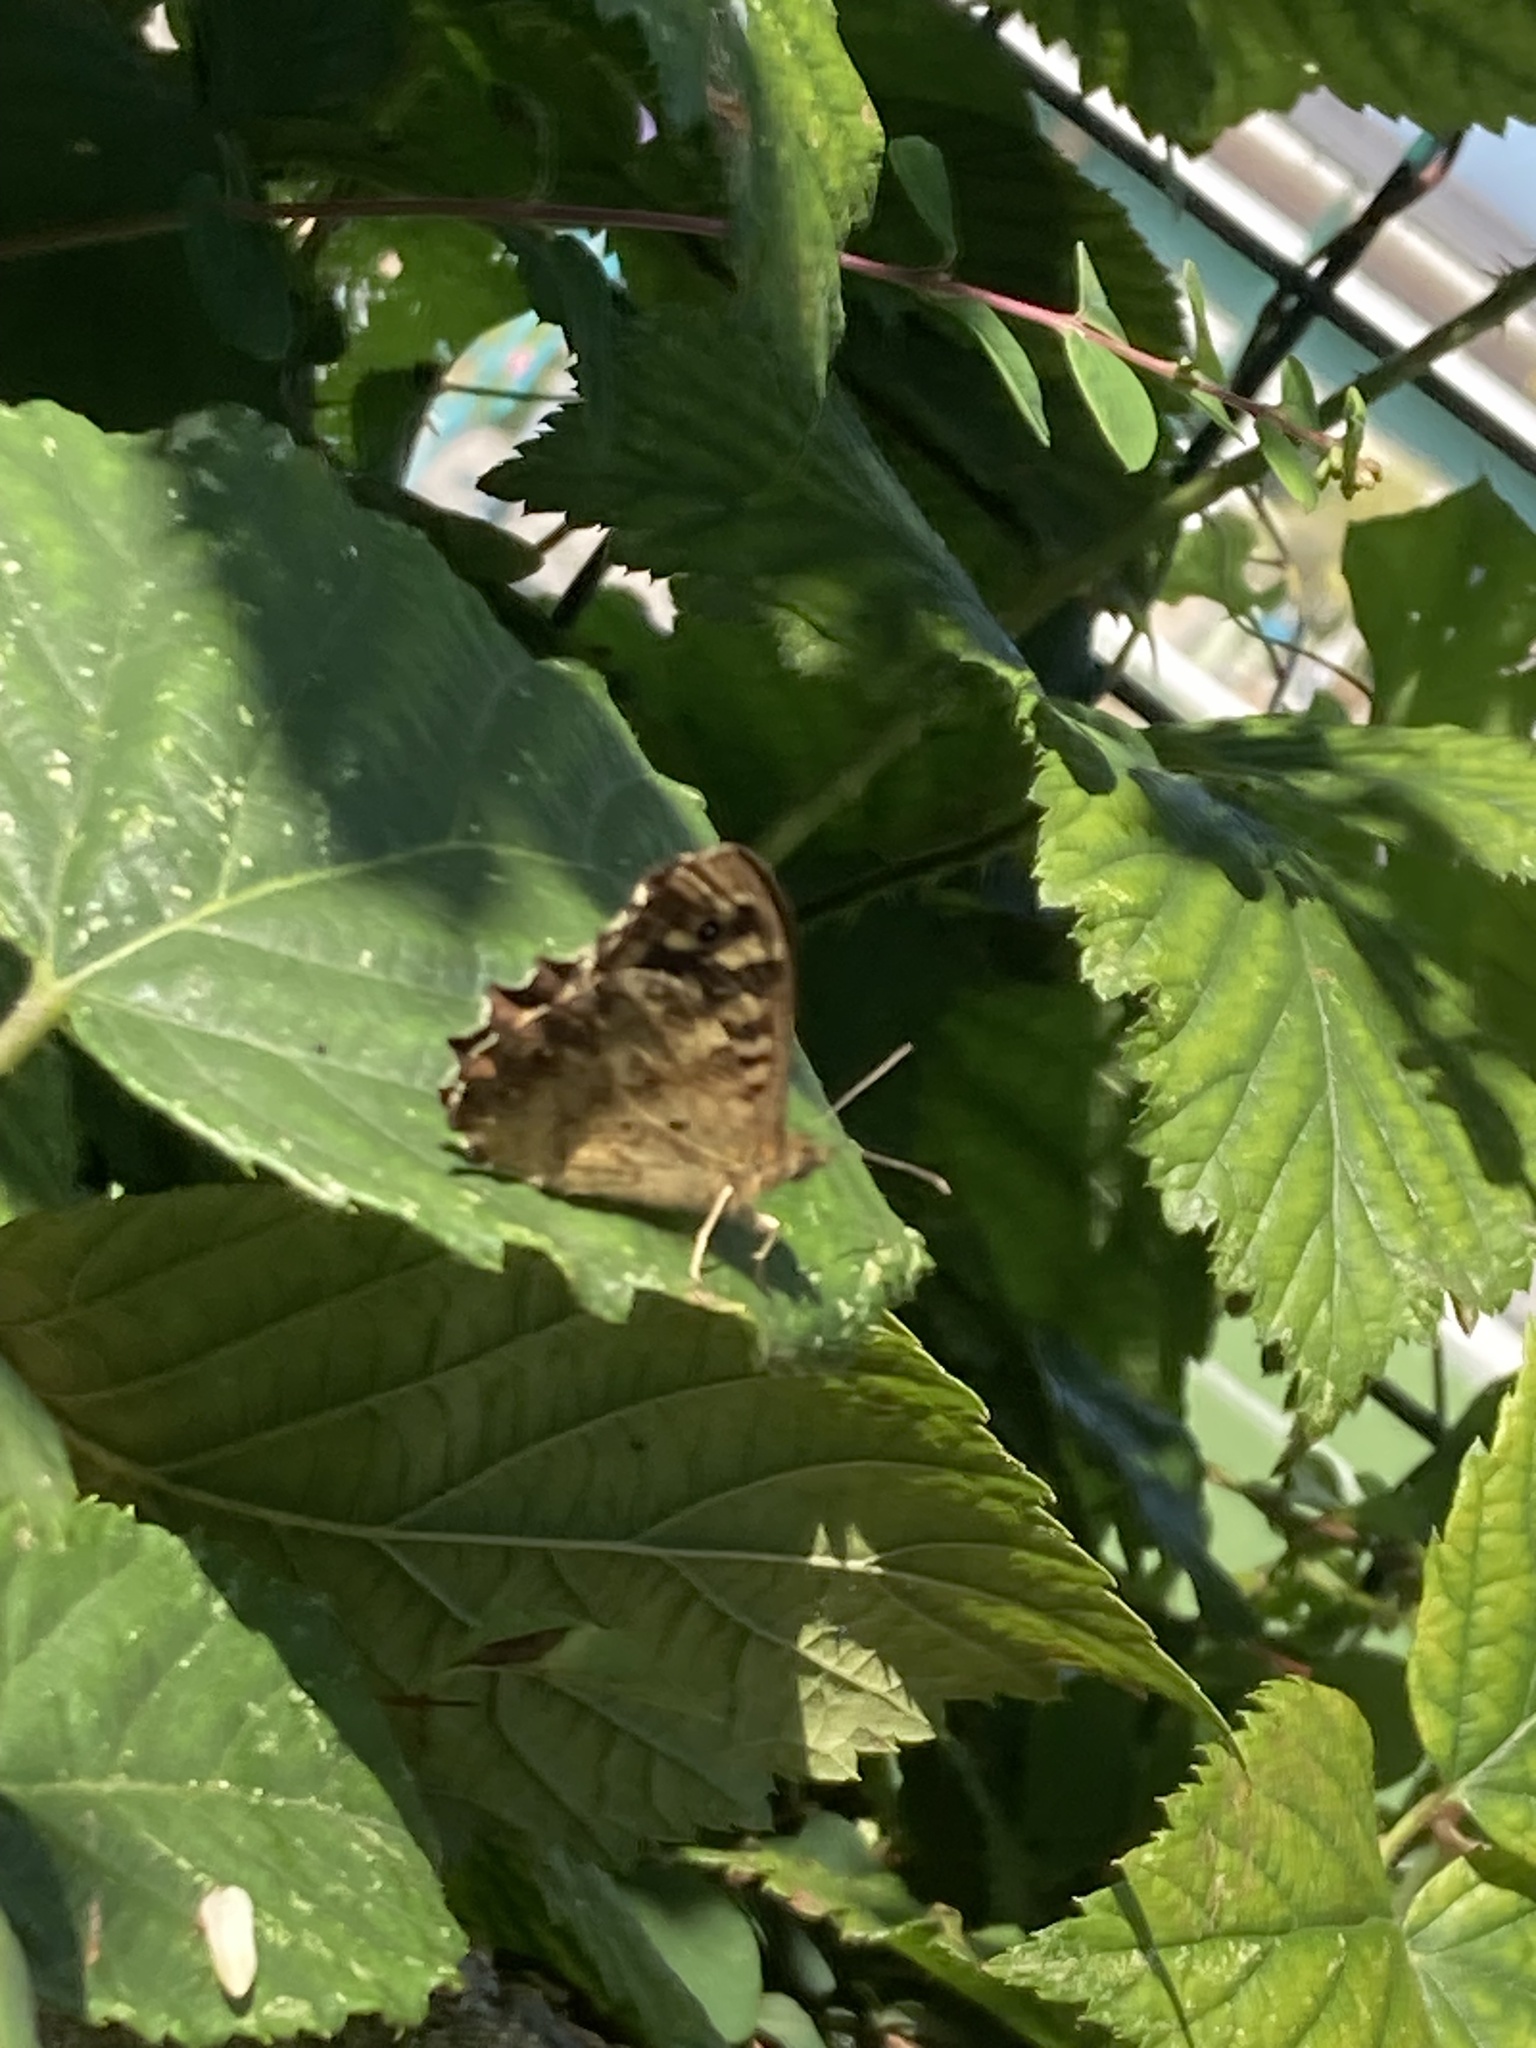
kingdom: Animalia
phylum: Arthropoda
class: Insecta
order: Lepidoptera
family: Nymphalidae
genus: Pararge
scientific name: Pararge aegeria
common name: Speckled wood
